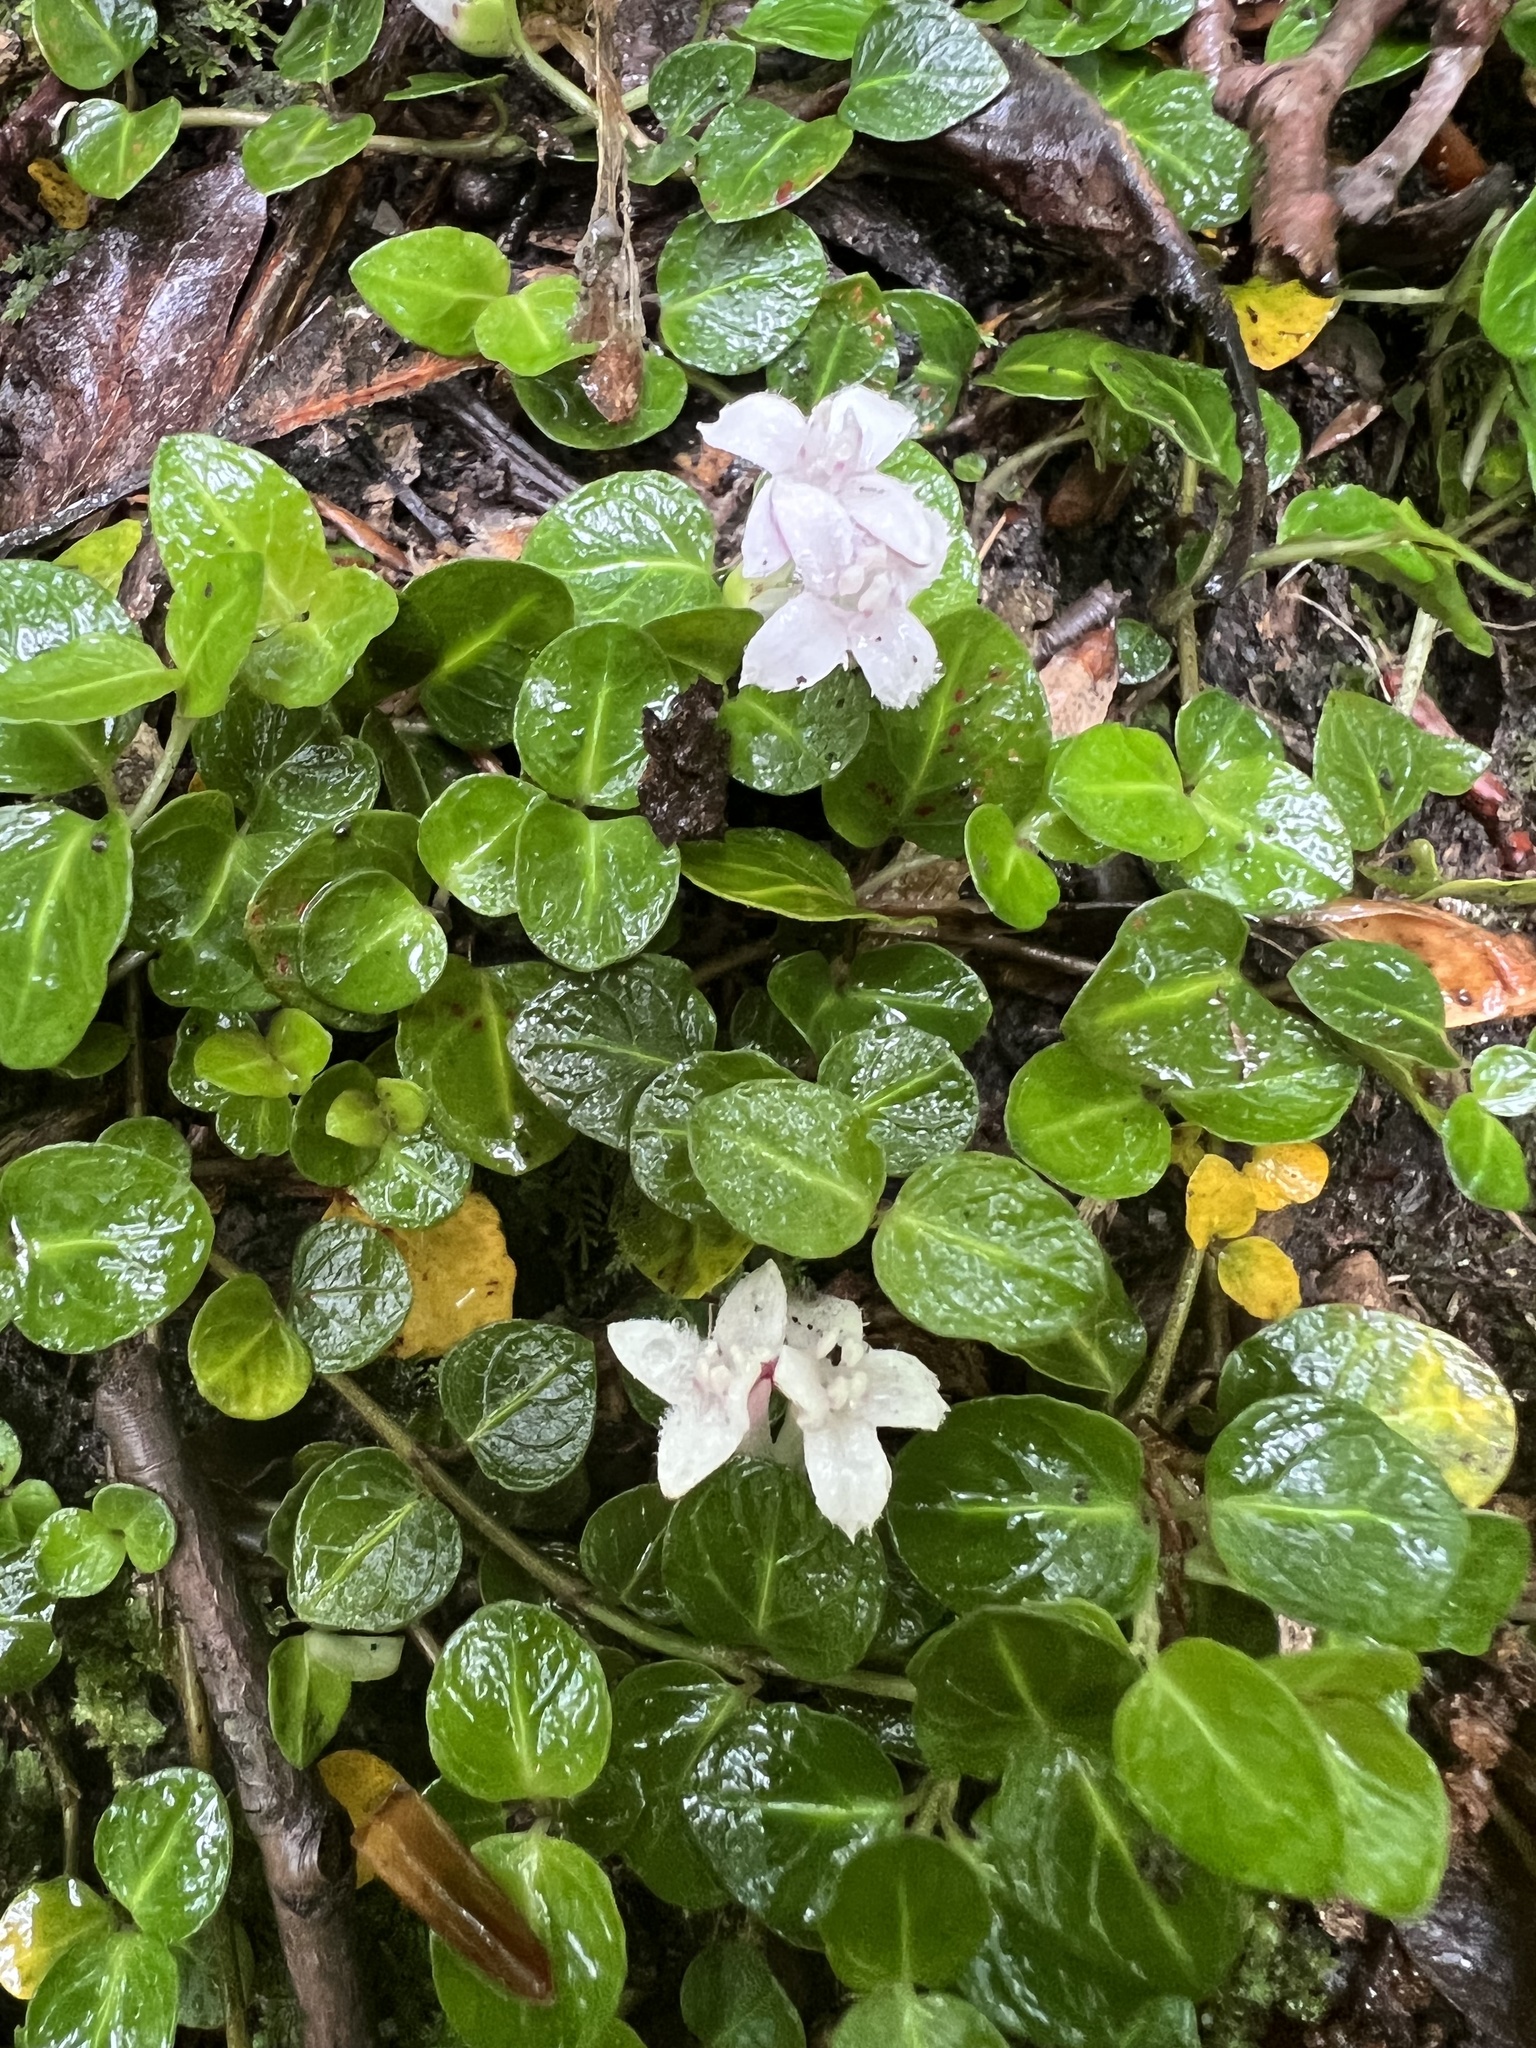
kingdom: Plantae
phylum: Tracheophyta
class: Magnoliopsida
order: Gentianales
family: Rubiaceae
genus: Mitchella
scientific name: Mitchella repens
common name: Partridge-berry
